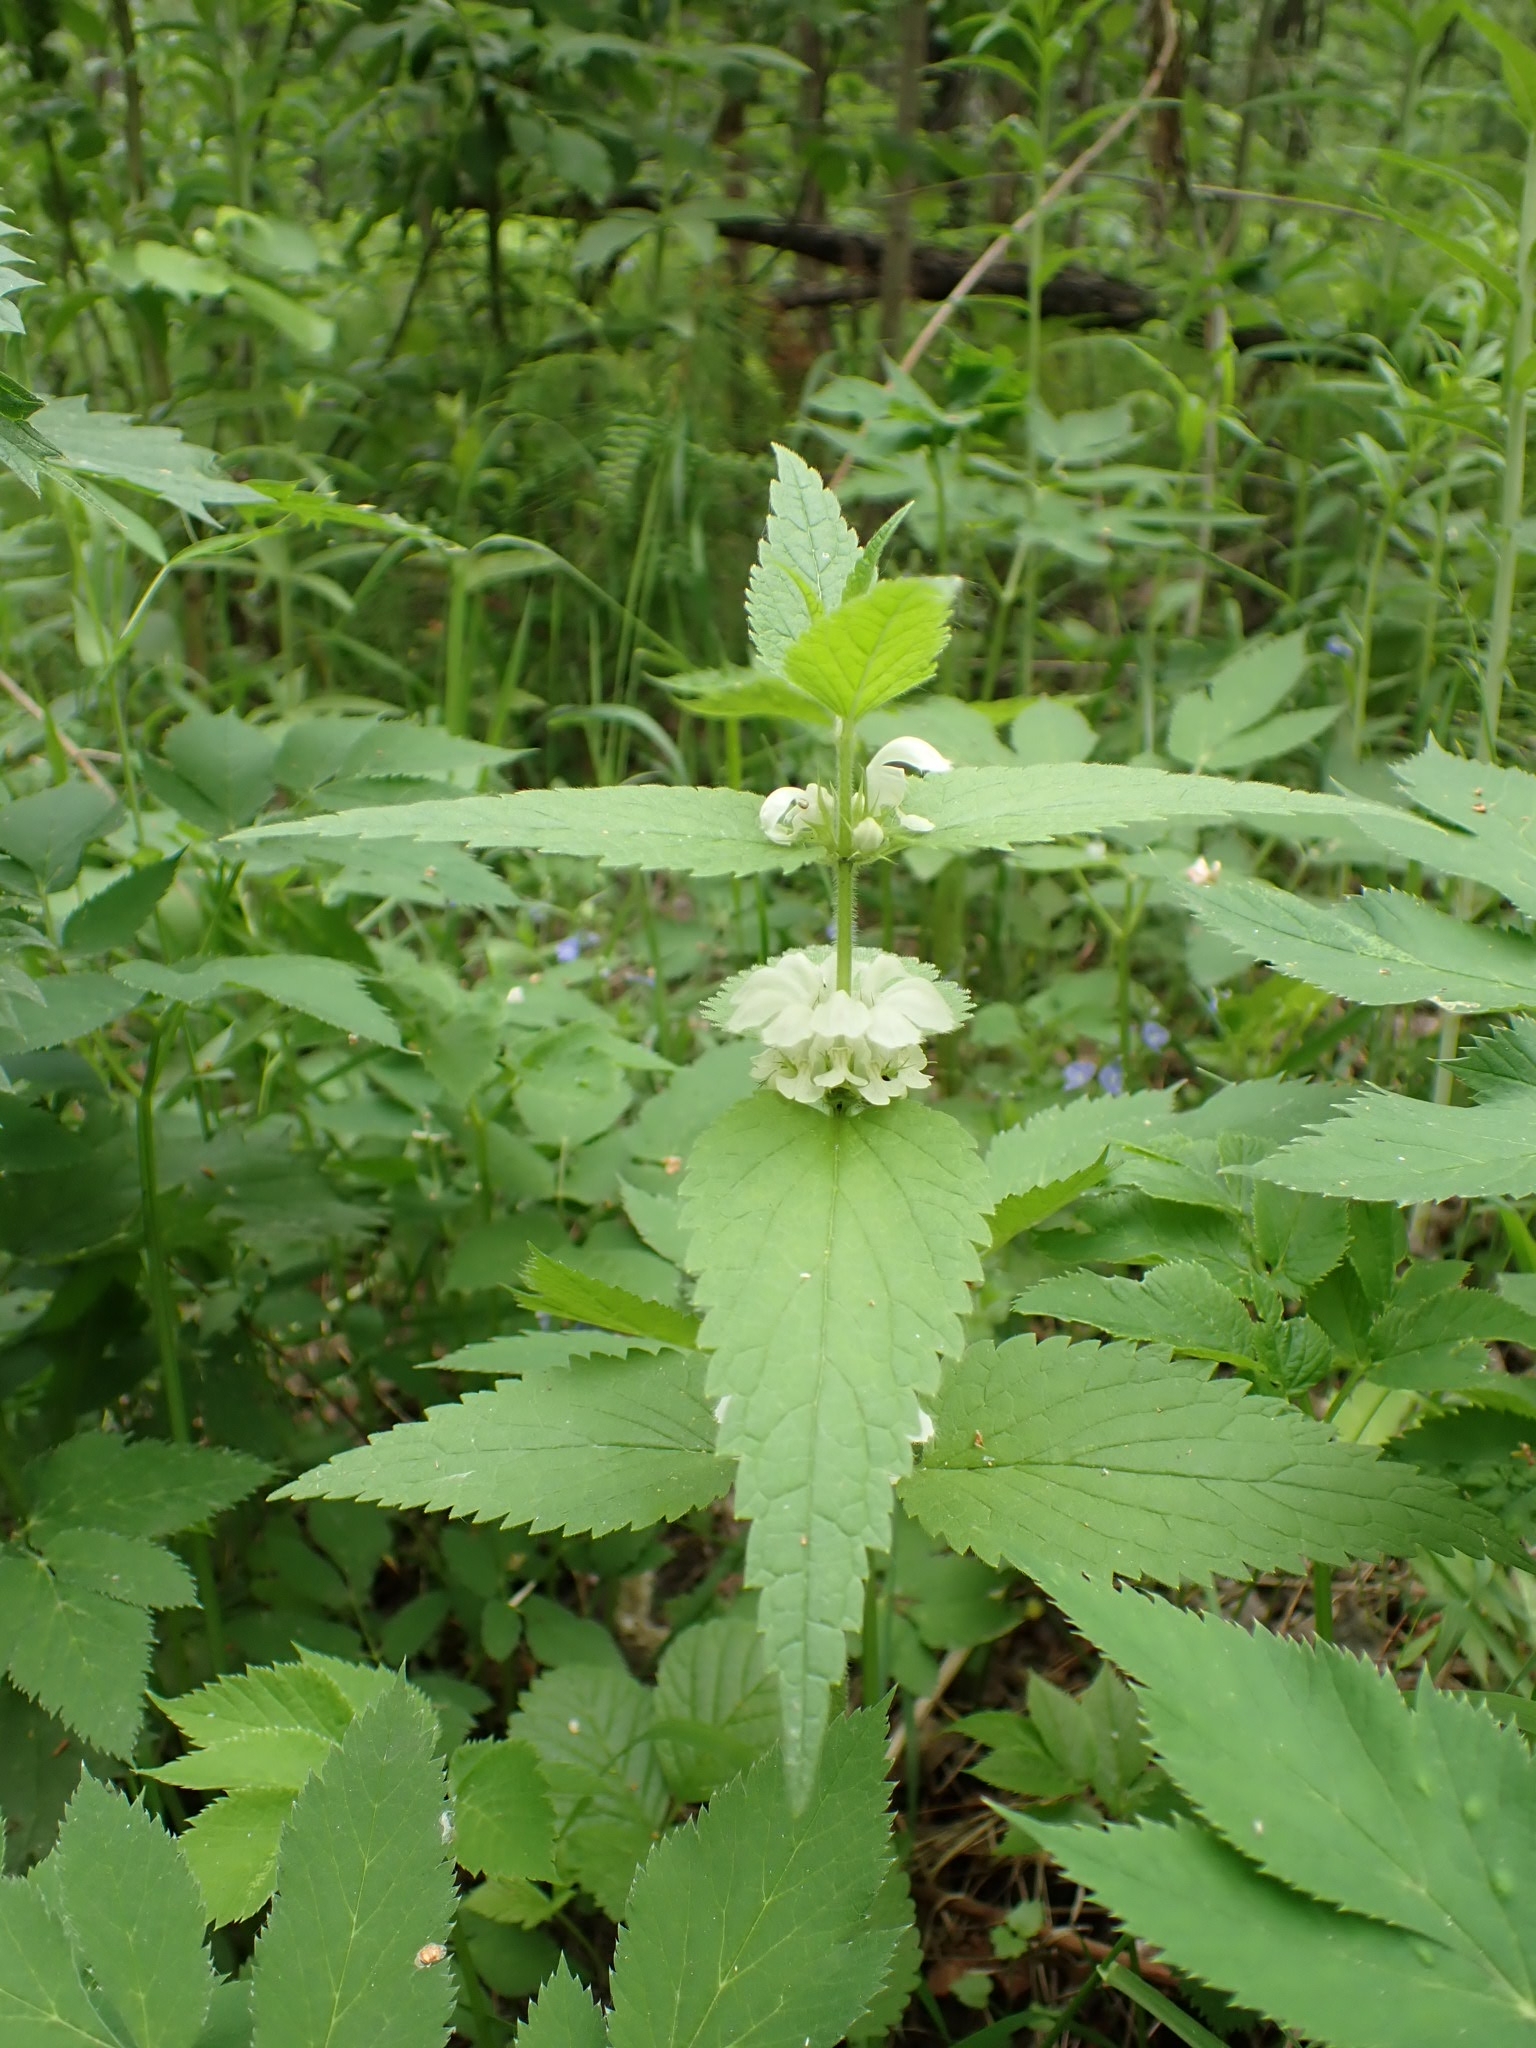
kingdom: Plantae
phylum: Tracheophyta
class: Magnoliopsida
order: Lamiales
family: Lamiaceae
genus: Lamium
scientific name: Lamium album
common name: White dead-nettle
